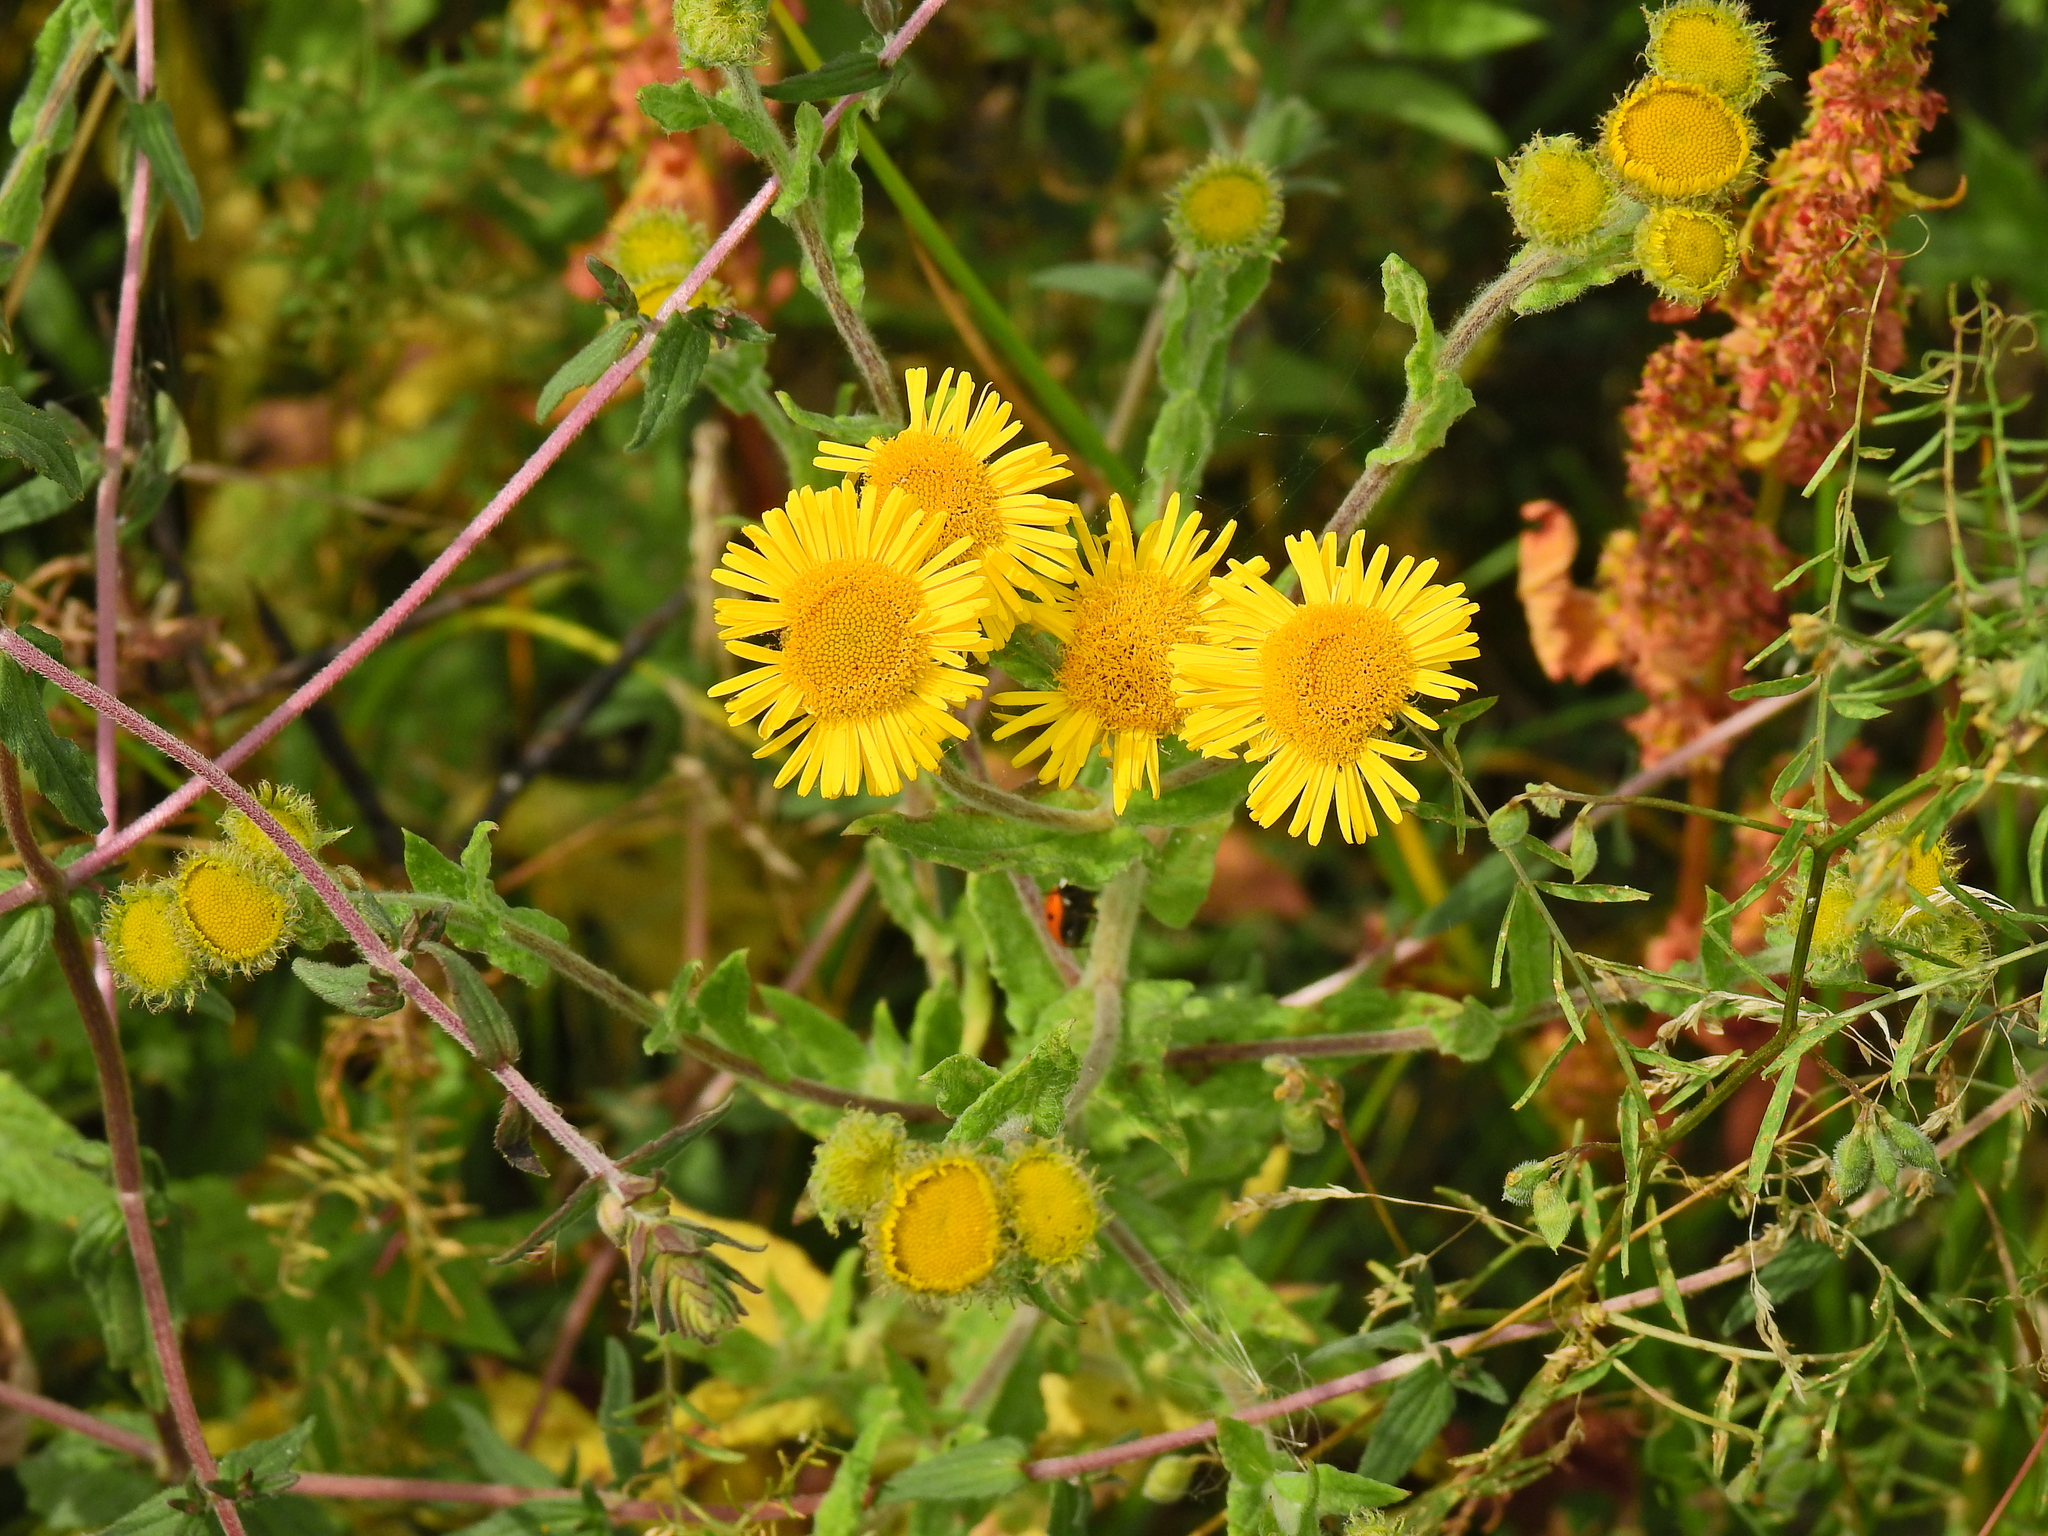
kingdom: Plantae
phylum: Tracheophyta
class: Magnoliopsida
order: Asterales
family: Asteraceae
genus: Pulicaria
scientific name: Pulicaria dysenterica
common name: Common fleabane
